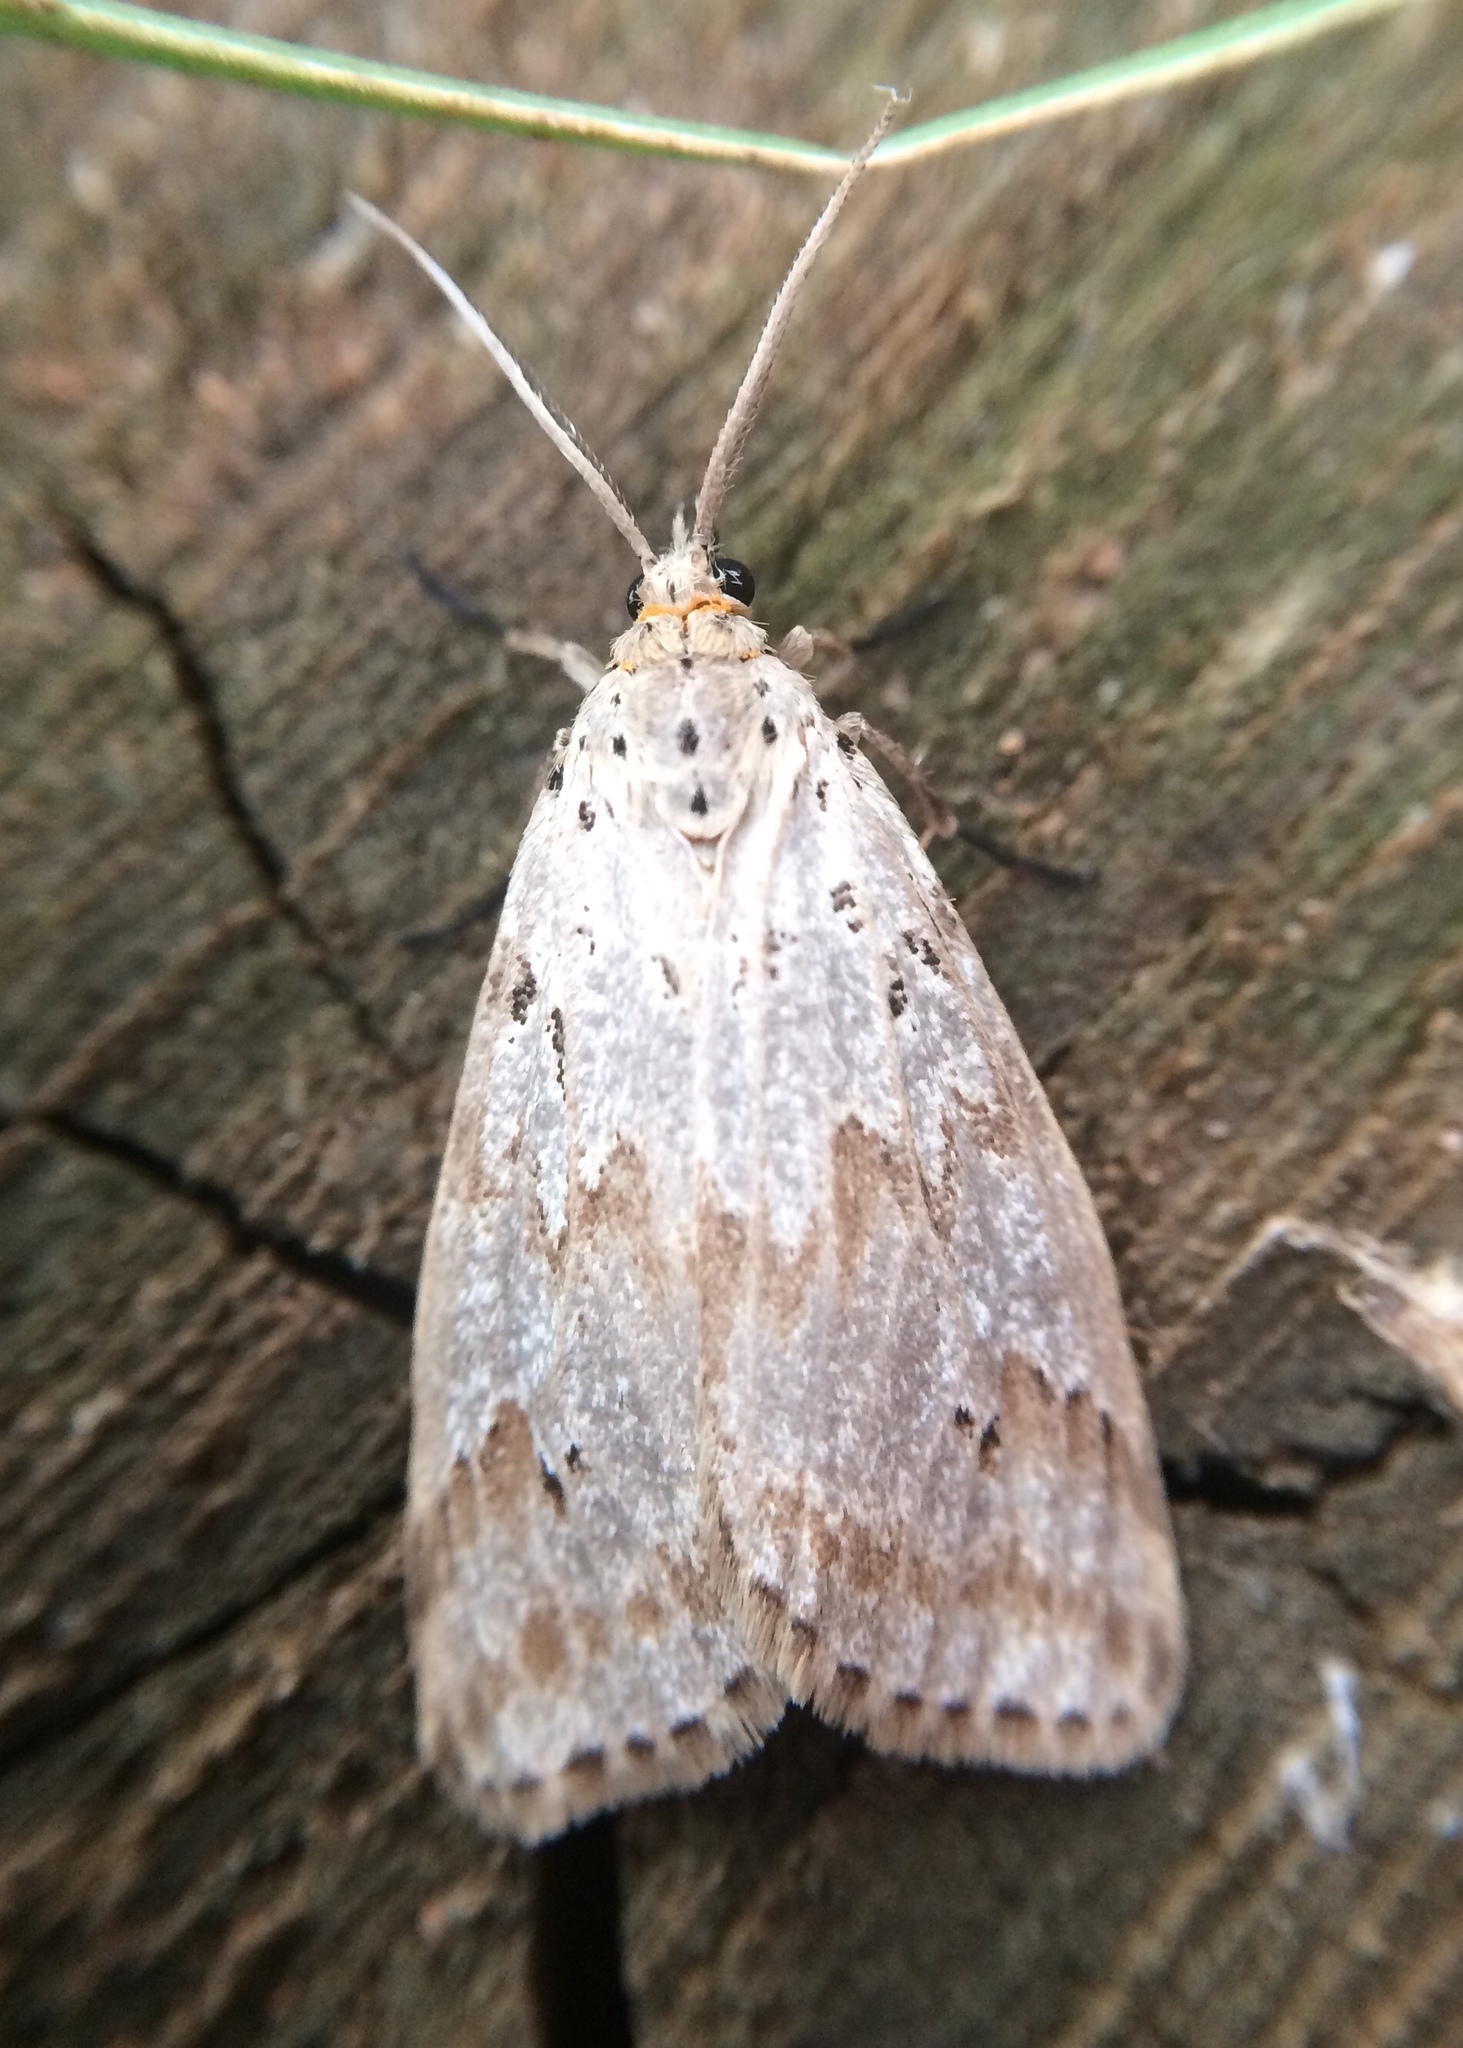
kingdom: Animalia
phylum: Arthropoda
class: Insecta
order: Lepidoptera
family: Erebidae
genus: Galtara
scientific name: Galtara rostrata
